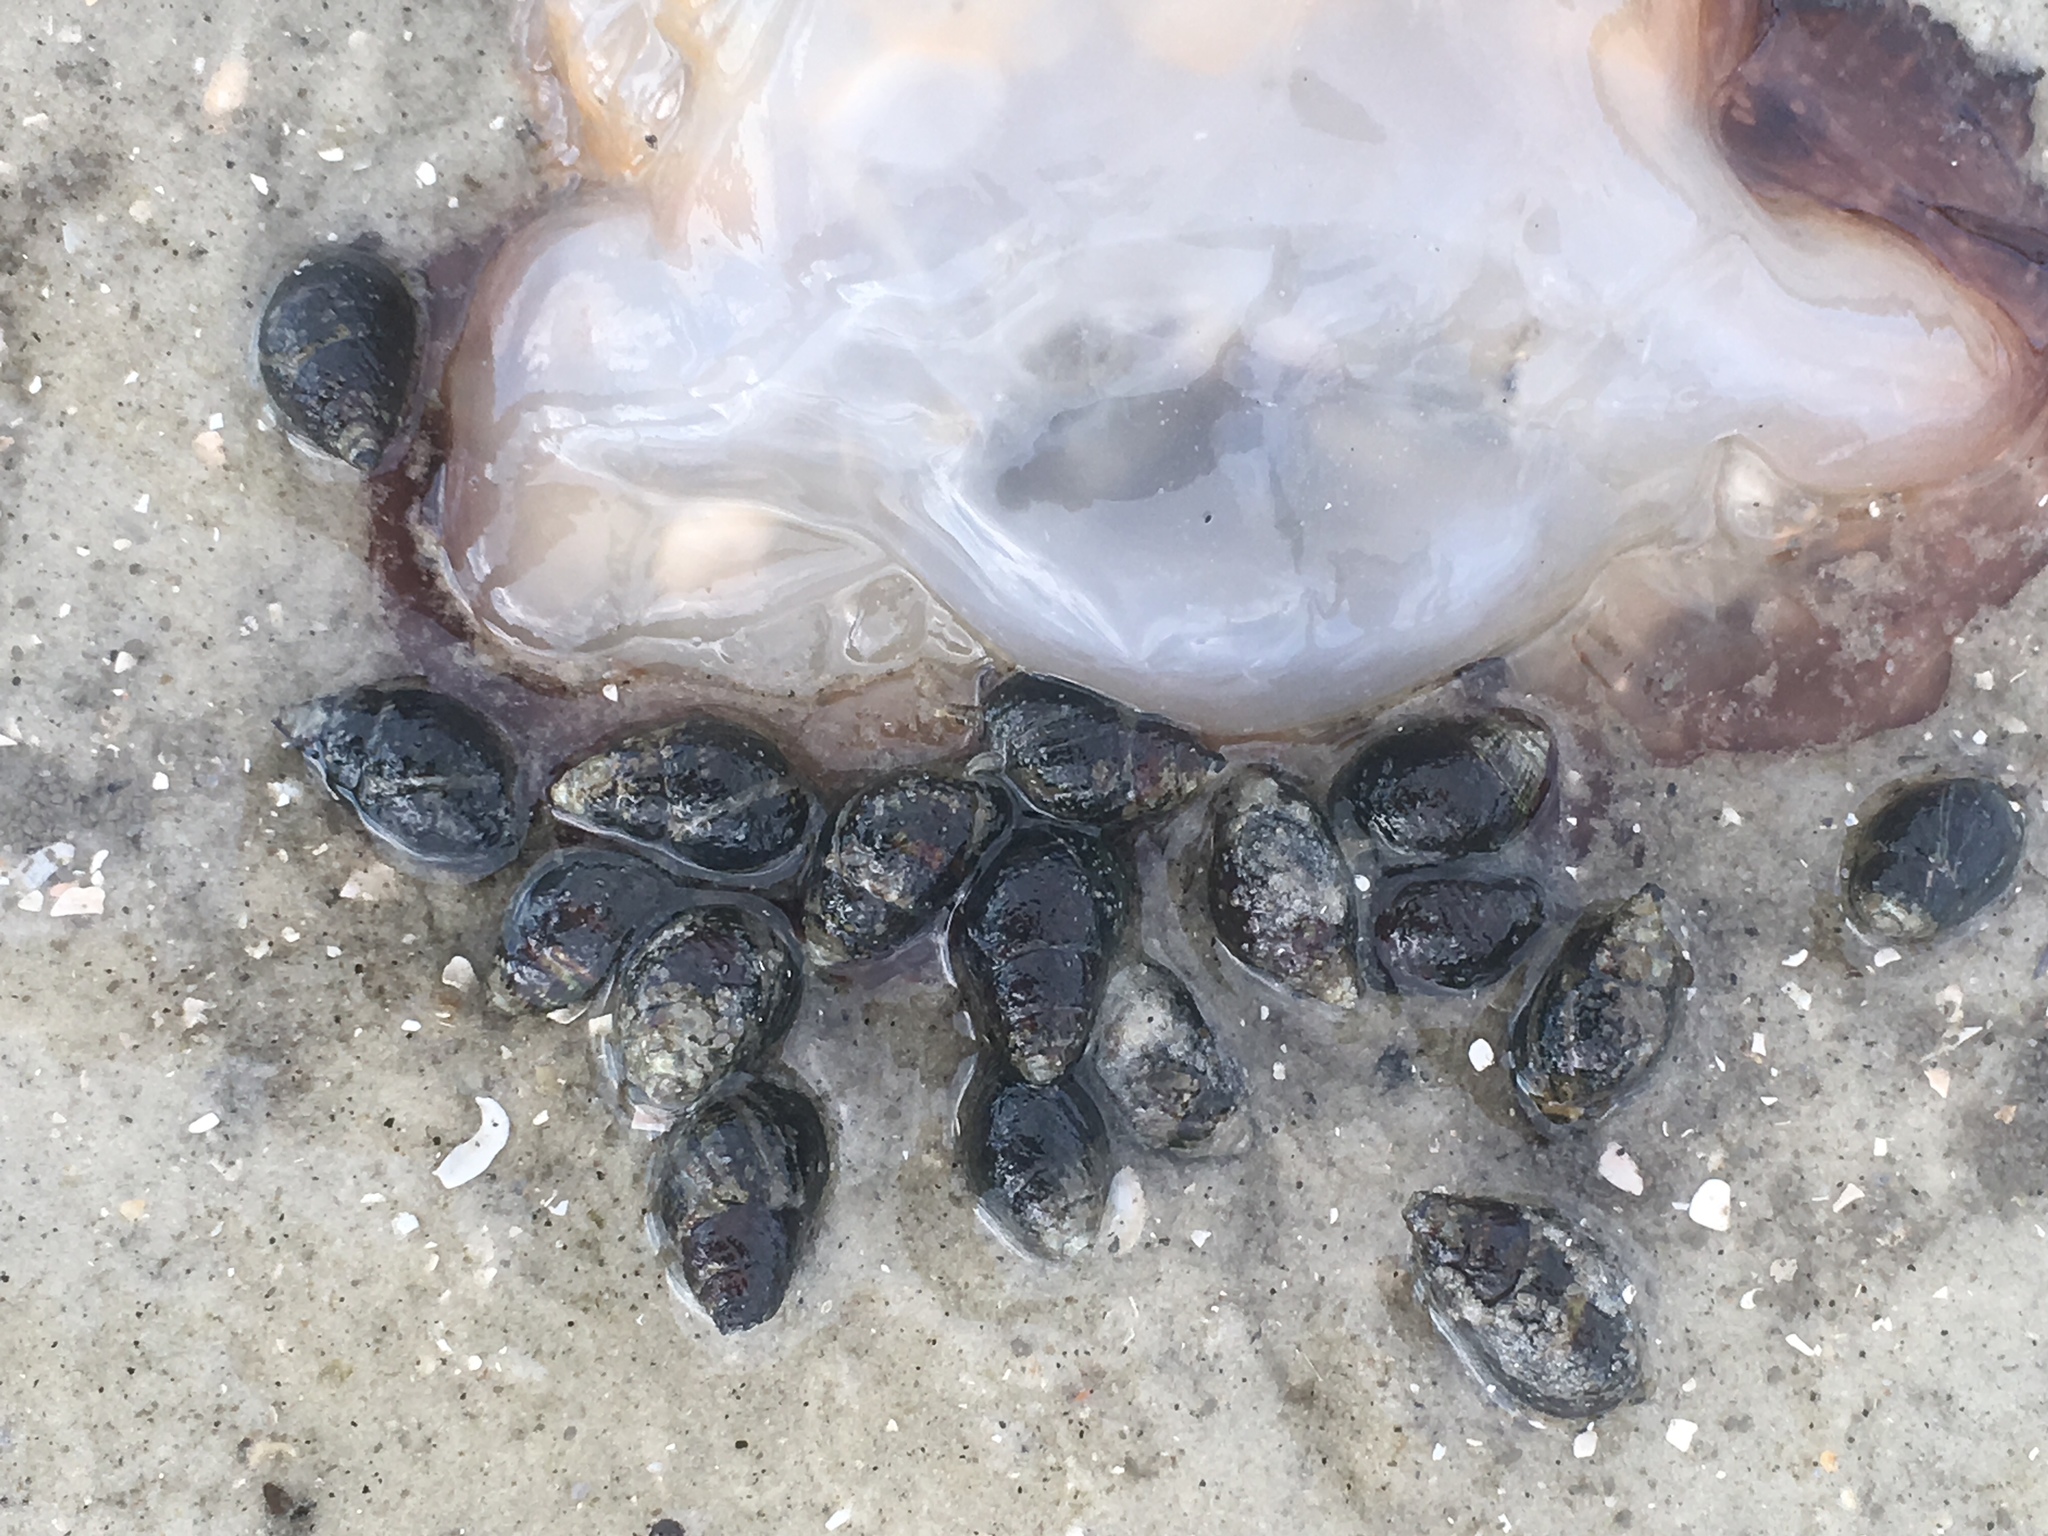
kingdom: Animalia
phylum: Mollusca
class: Gastropoda
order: Neogastropoda
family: Nassariidae
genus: Ilyanassa
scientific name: Ilyanassa obsoleta
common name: Eastern mudsnail
